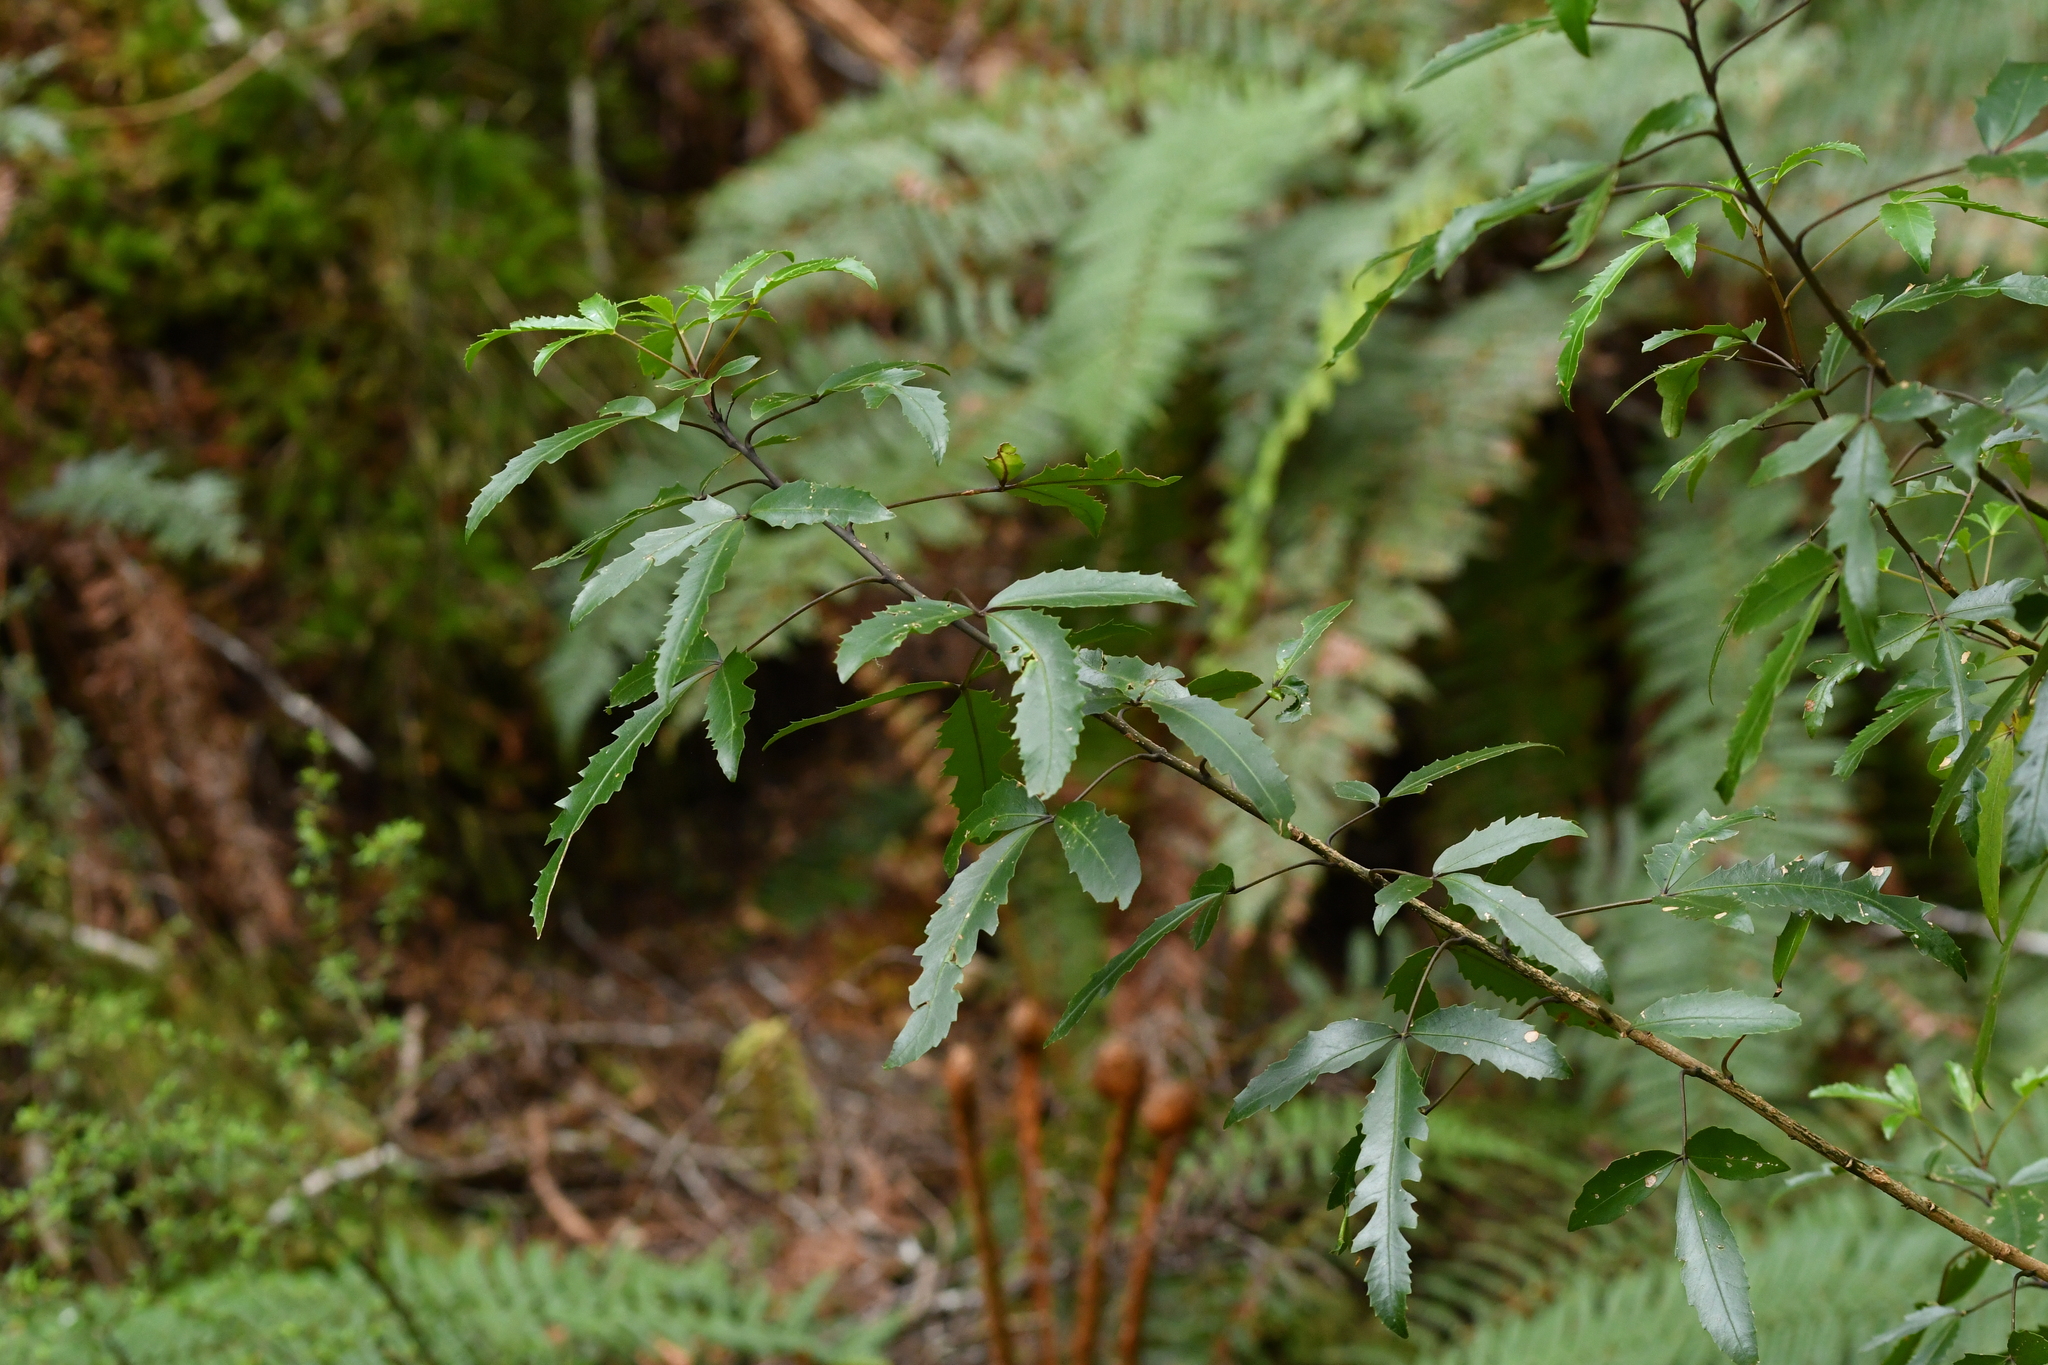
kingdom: Plantae
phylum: Tracheophyta
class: Magnoliopsida
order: Apiales
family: Araliaceae
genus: Raukaua
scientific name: Raukaua simplex
